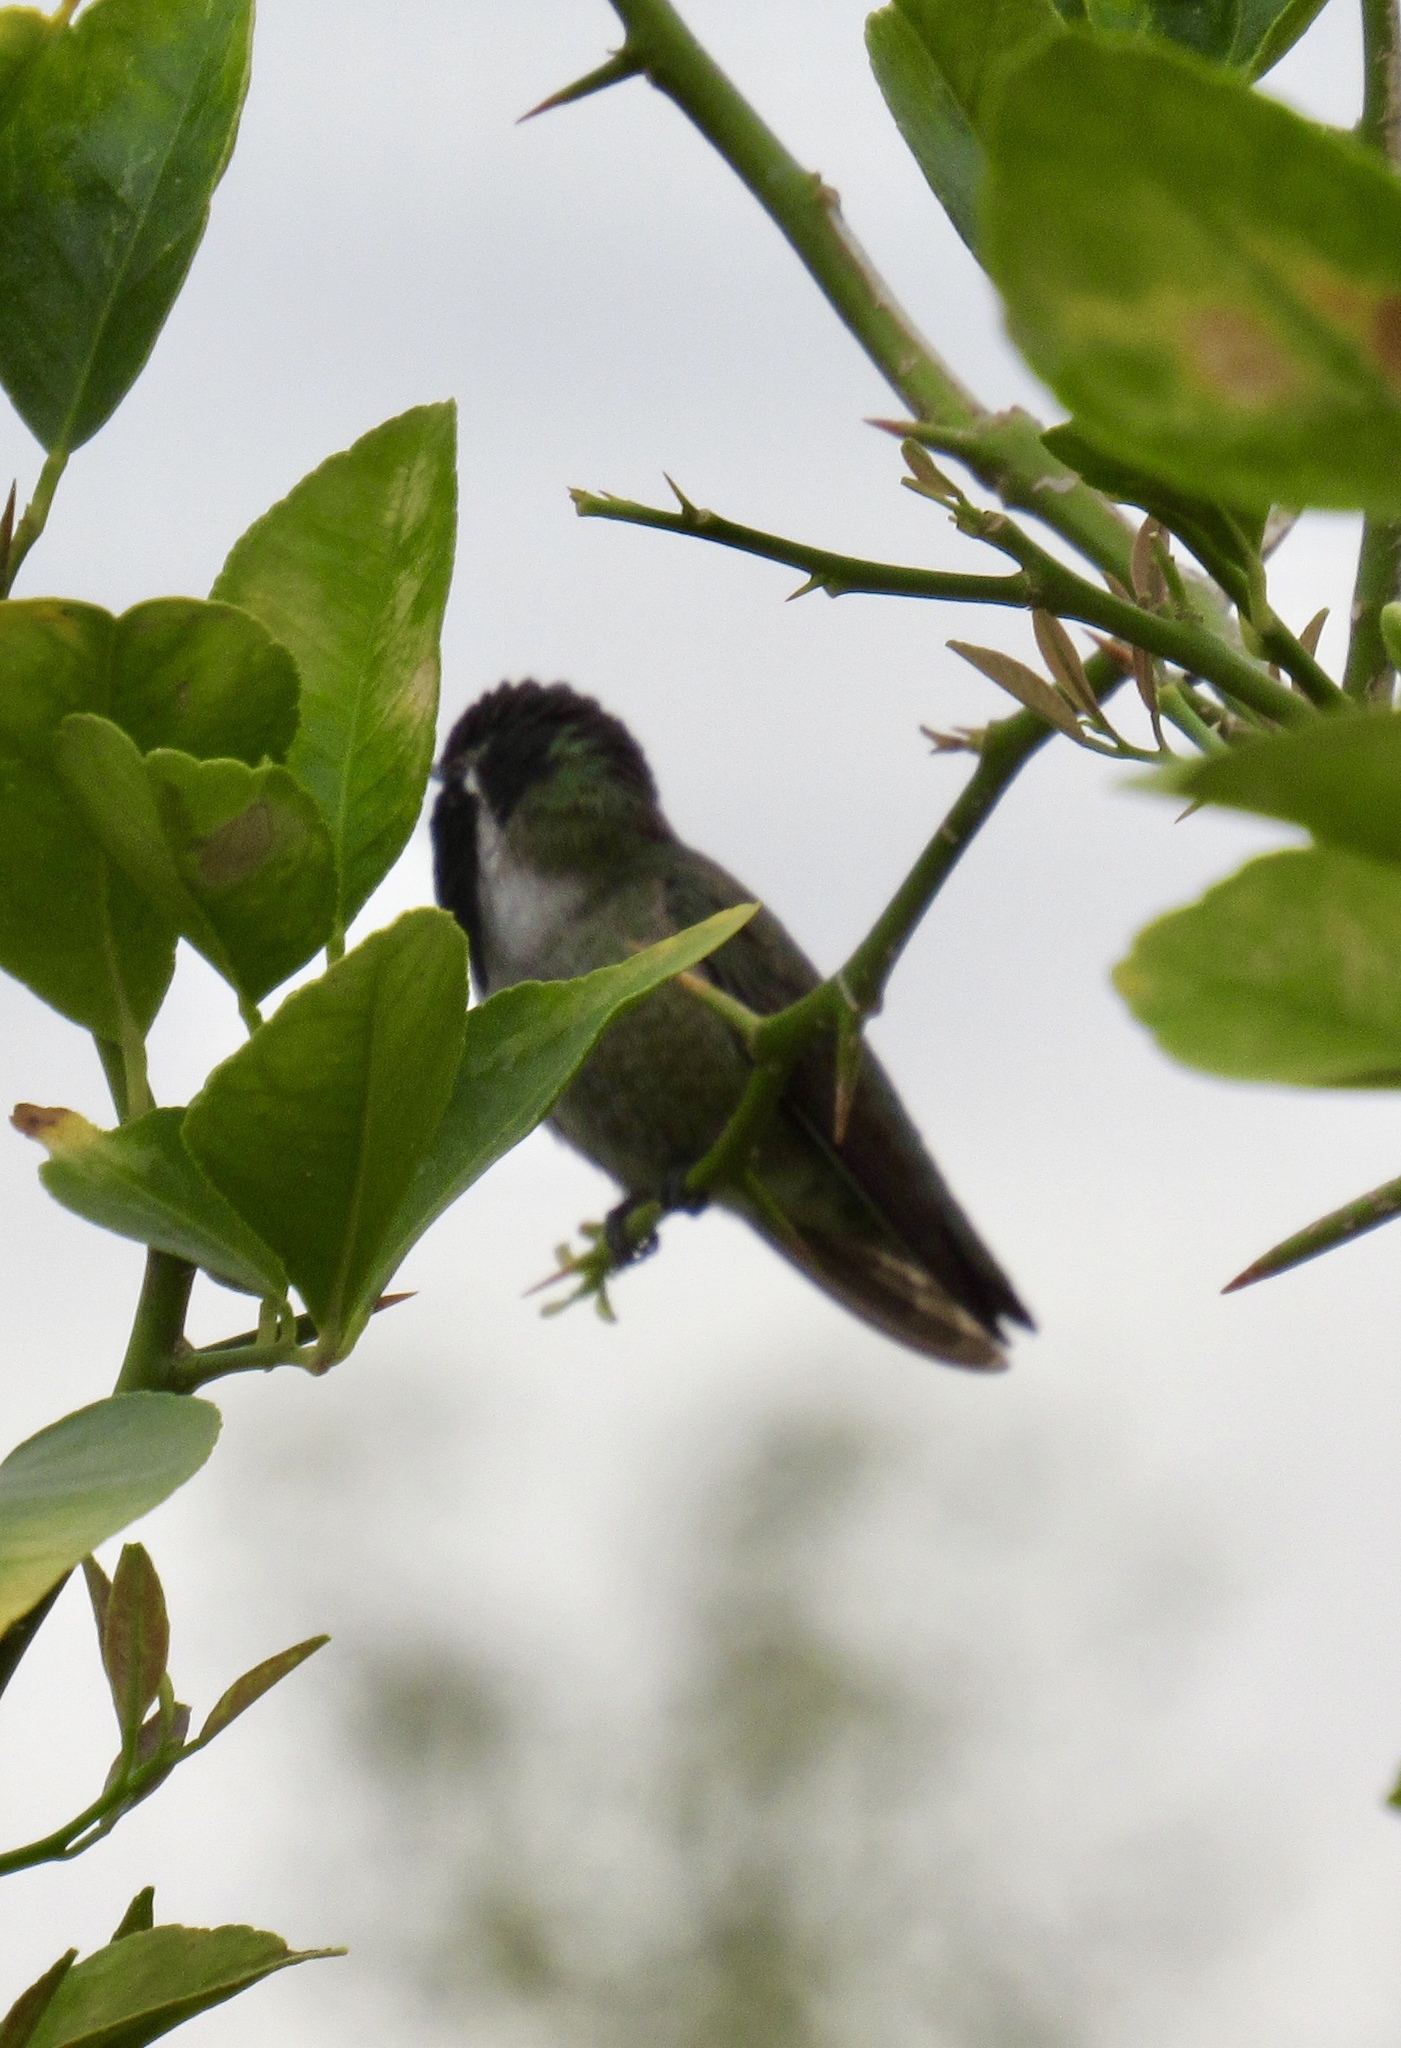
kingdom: Animalia
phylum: Chordata
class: Aves
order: Apodiformes
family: Trochilidae
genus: Calypte
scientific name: Calypte costae
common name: Costa's hummingbird
